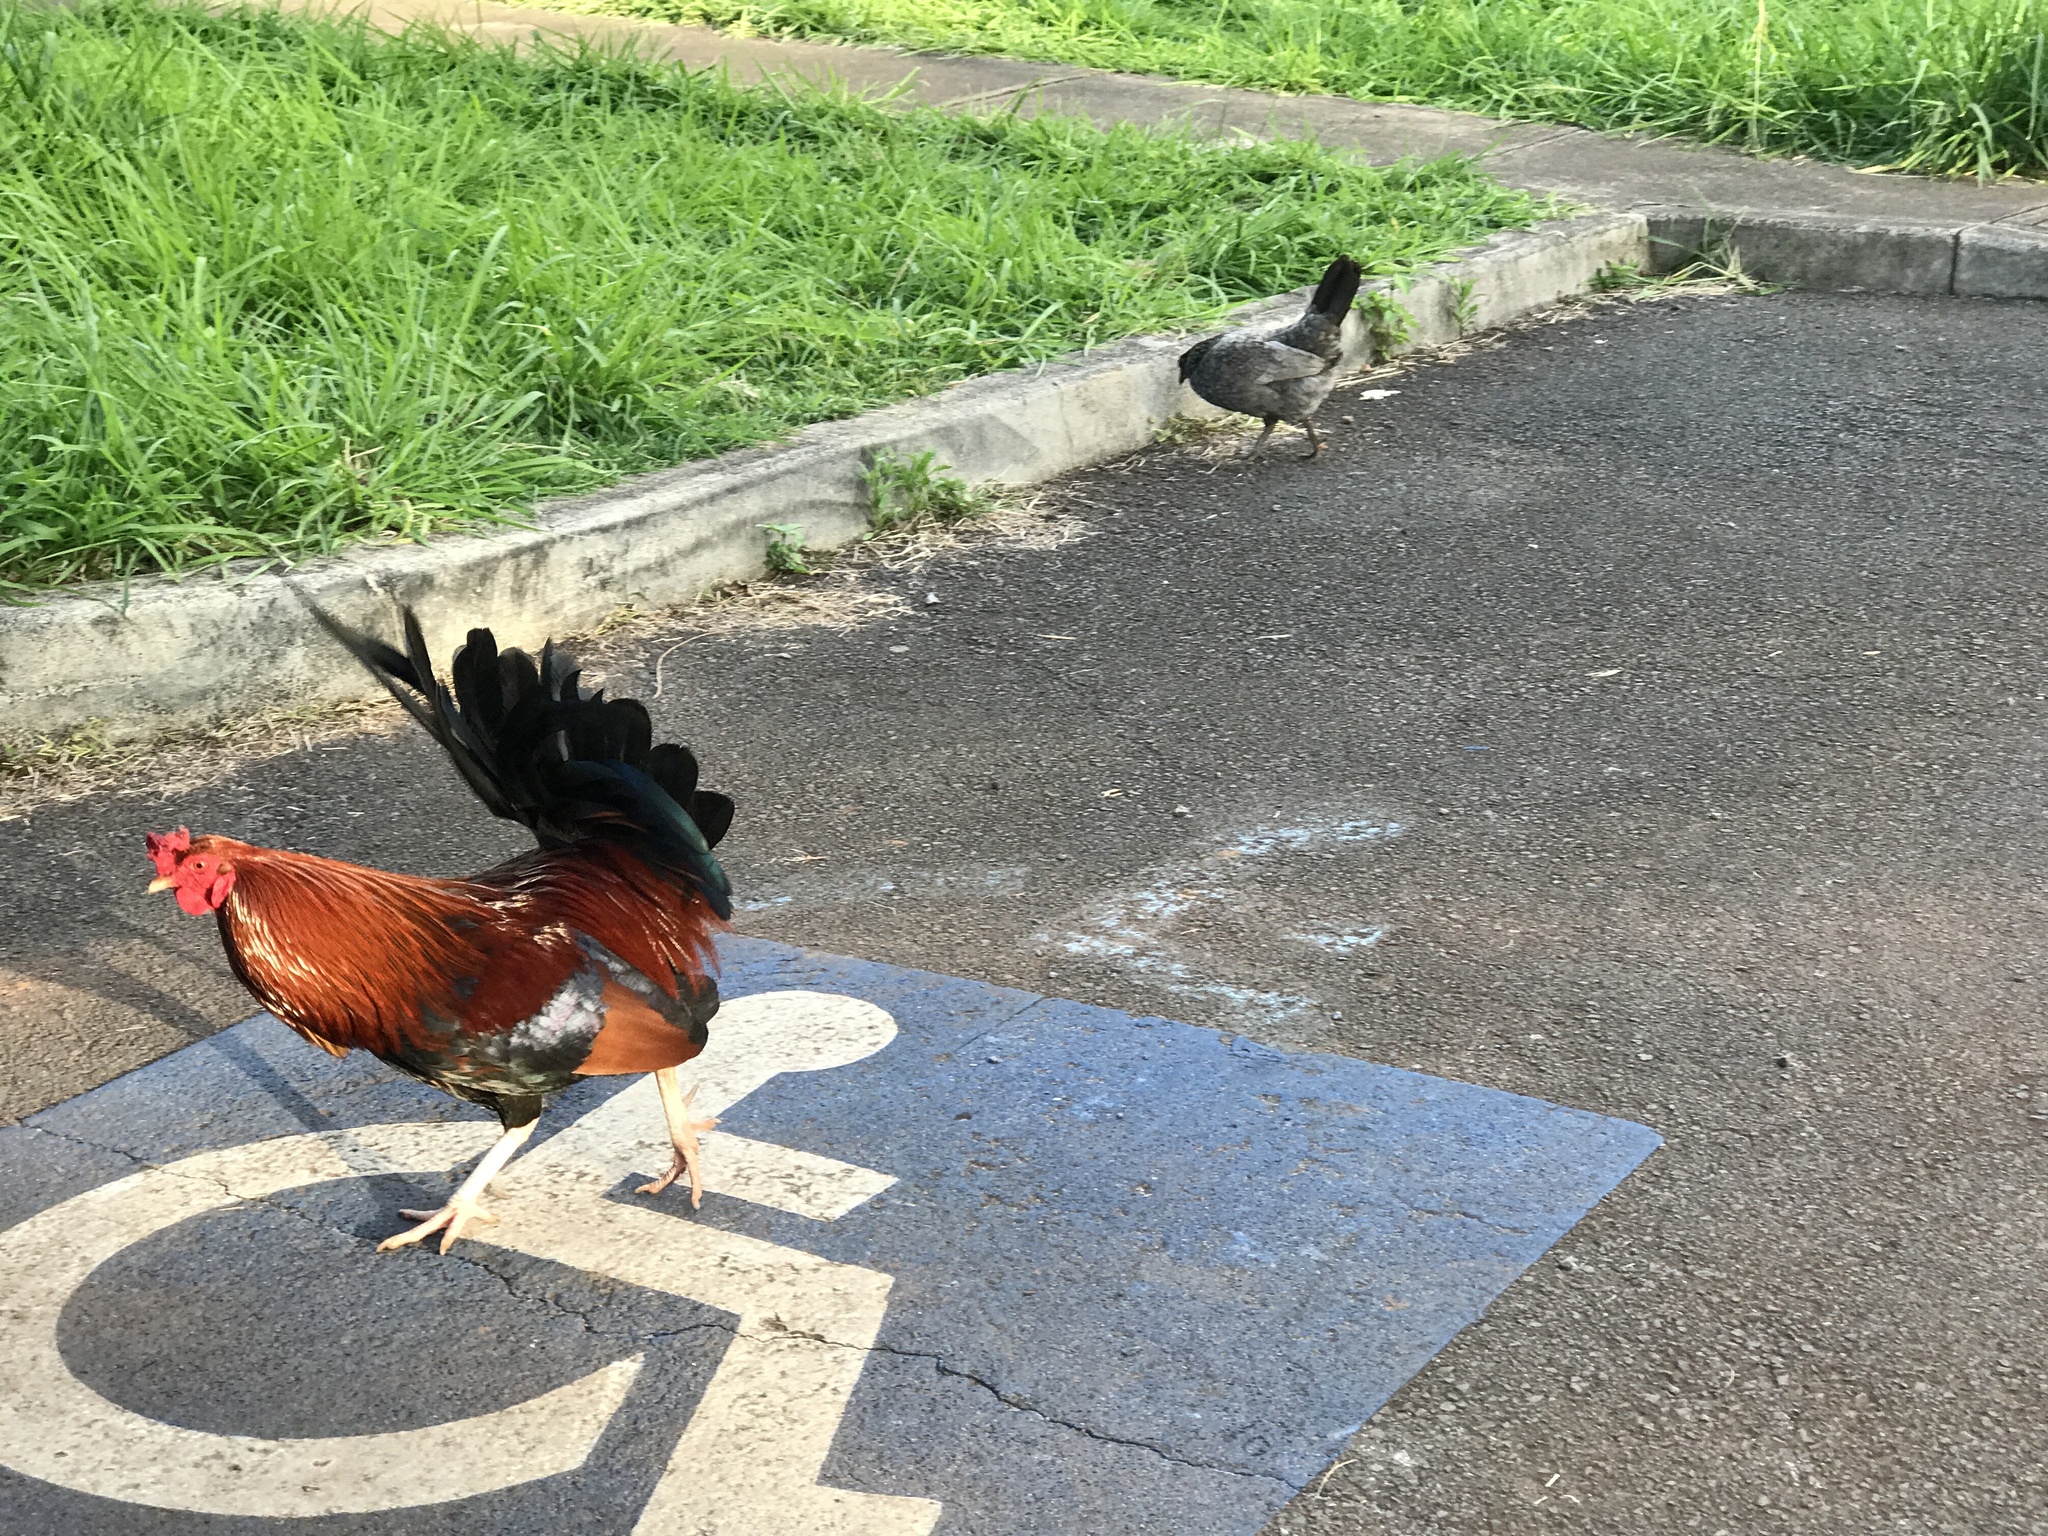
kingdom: Animalia
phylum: Chordata
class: Aves
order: Galliformes
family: Phasianidae
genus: Gallus
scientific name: Gallus gallus
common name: Red junglefowl
